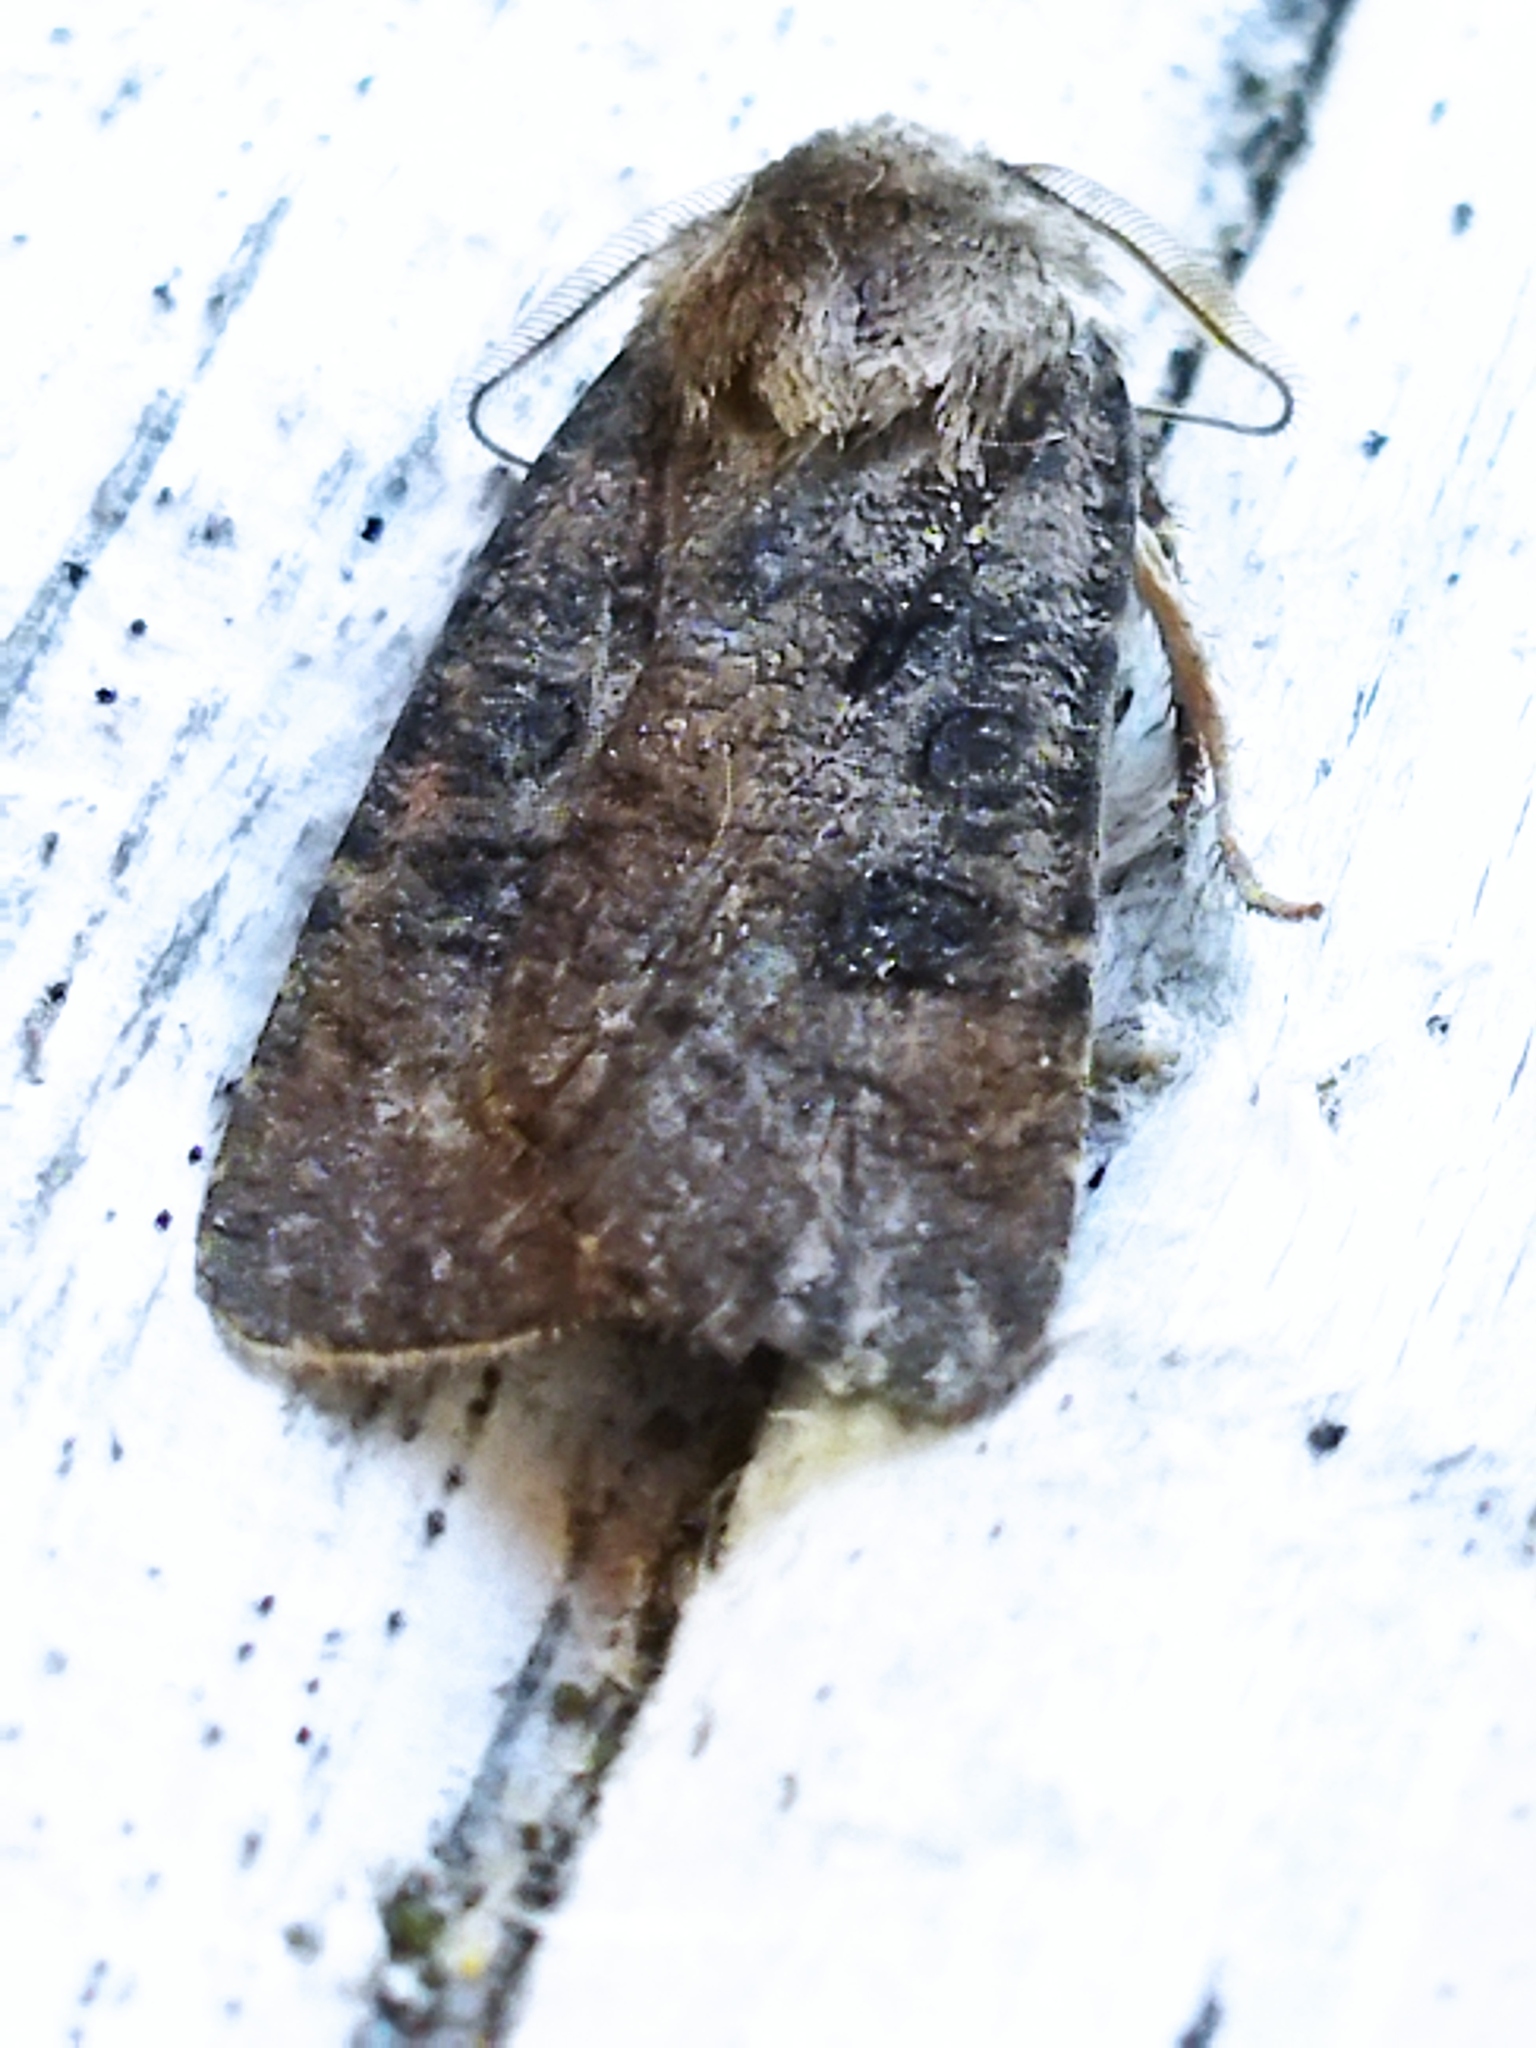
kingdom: Animalia
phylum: Arthropoda
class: Insecta
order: Lepidoptera
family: Noctuidae
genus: Agrotis
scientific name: Agrotis segetum
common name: Turnip moth
